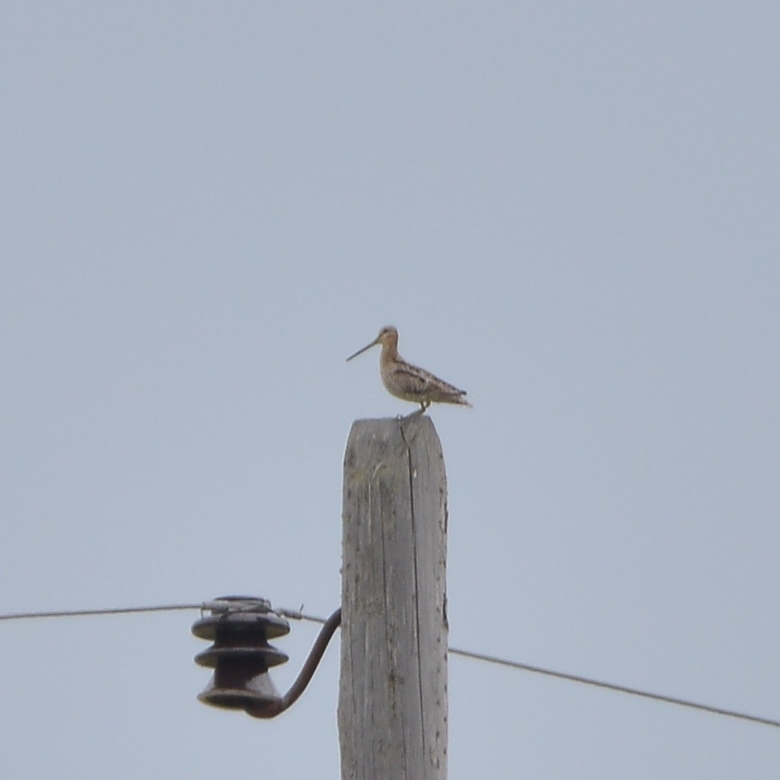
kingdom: Animalia
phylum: Chordata
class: Aves
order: Charadriiformes
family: Scolopacidae
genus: Gallinago
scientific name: Gallinago hardwickii
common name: Latham's snipe
